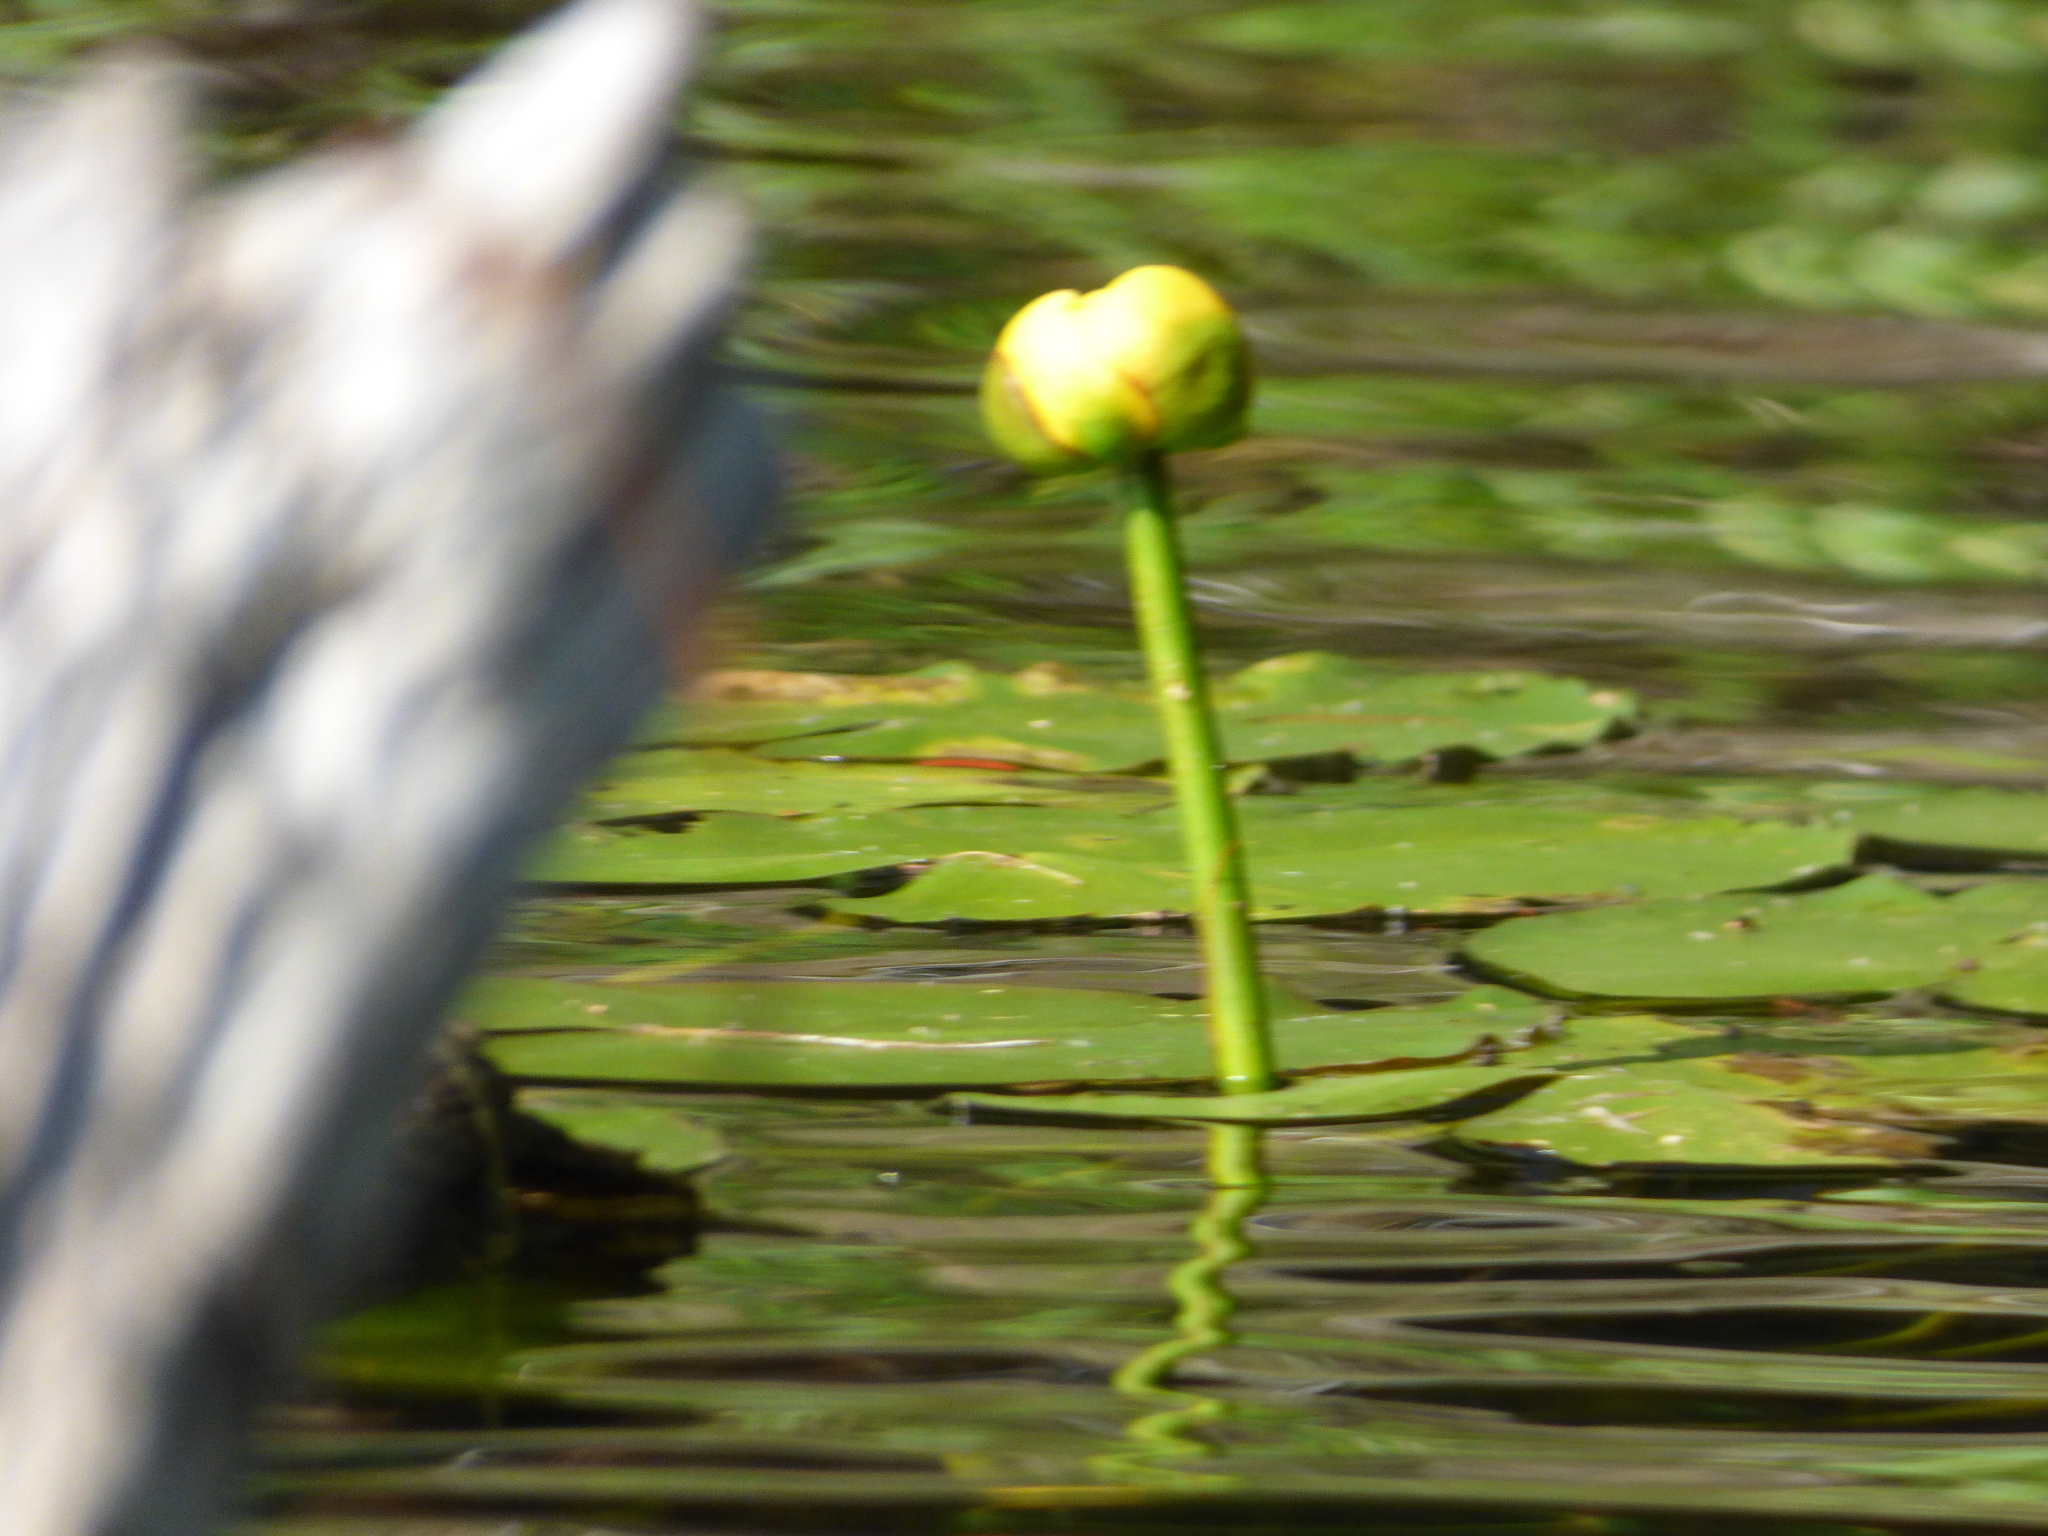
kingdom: Plantae
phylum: Tracheophyta
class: Magnoliopsida
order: Nymphaeales
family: Nymphaeaceae
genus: Nuphar
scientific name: Nuphar variegata
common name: Beaver-root
